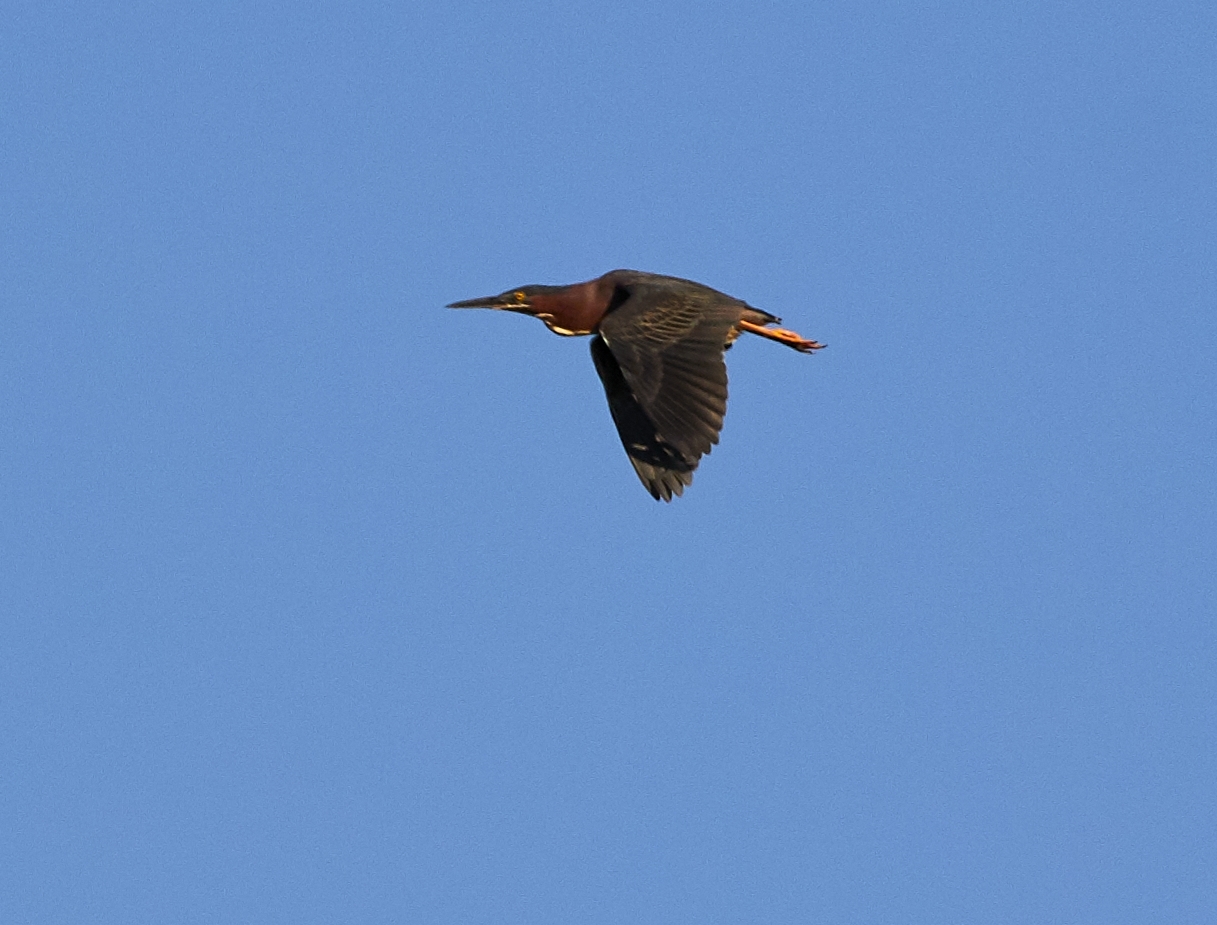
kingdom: Animalia
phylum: Chordata
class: Aves
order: Pelecaniformes
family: Ardeidae
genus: Butorides
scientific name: Butorides virescens
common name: Green heron
